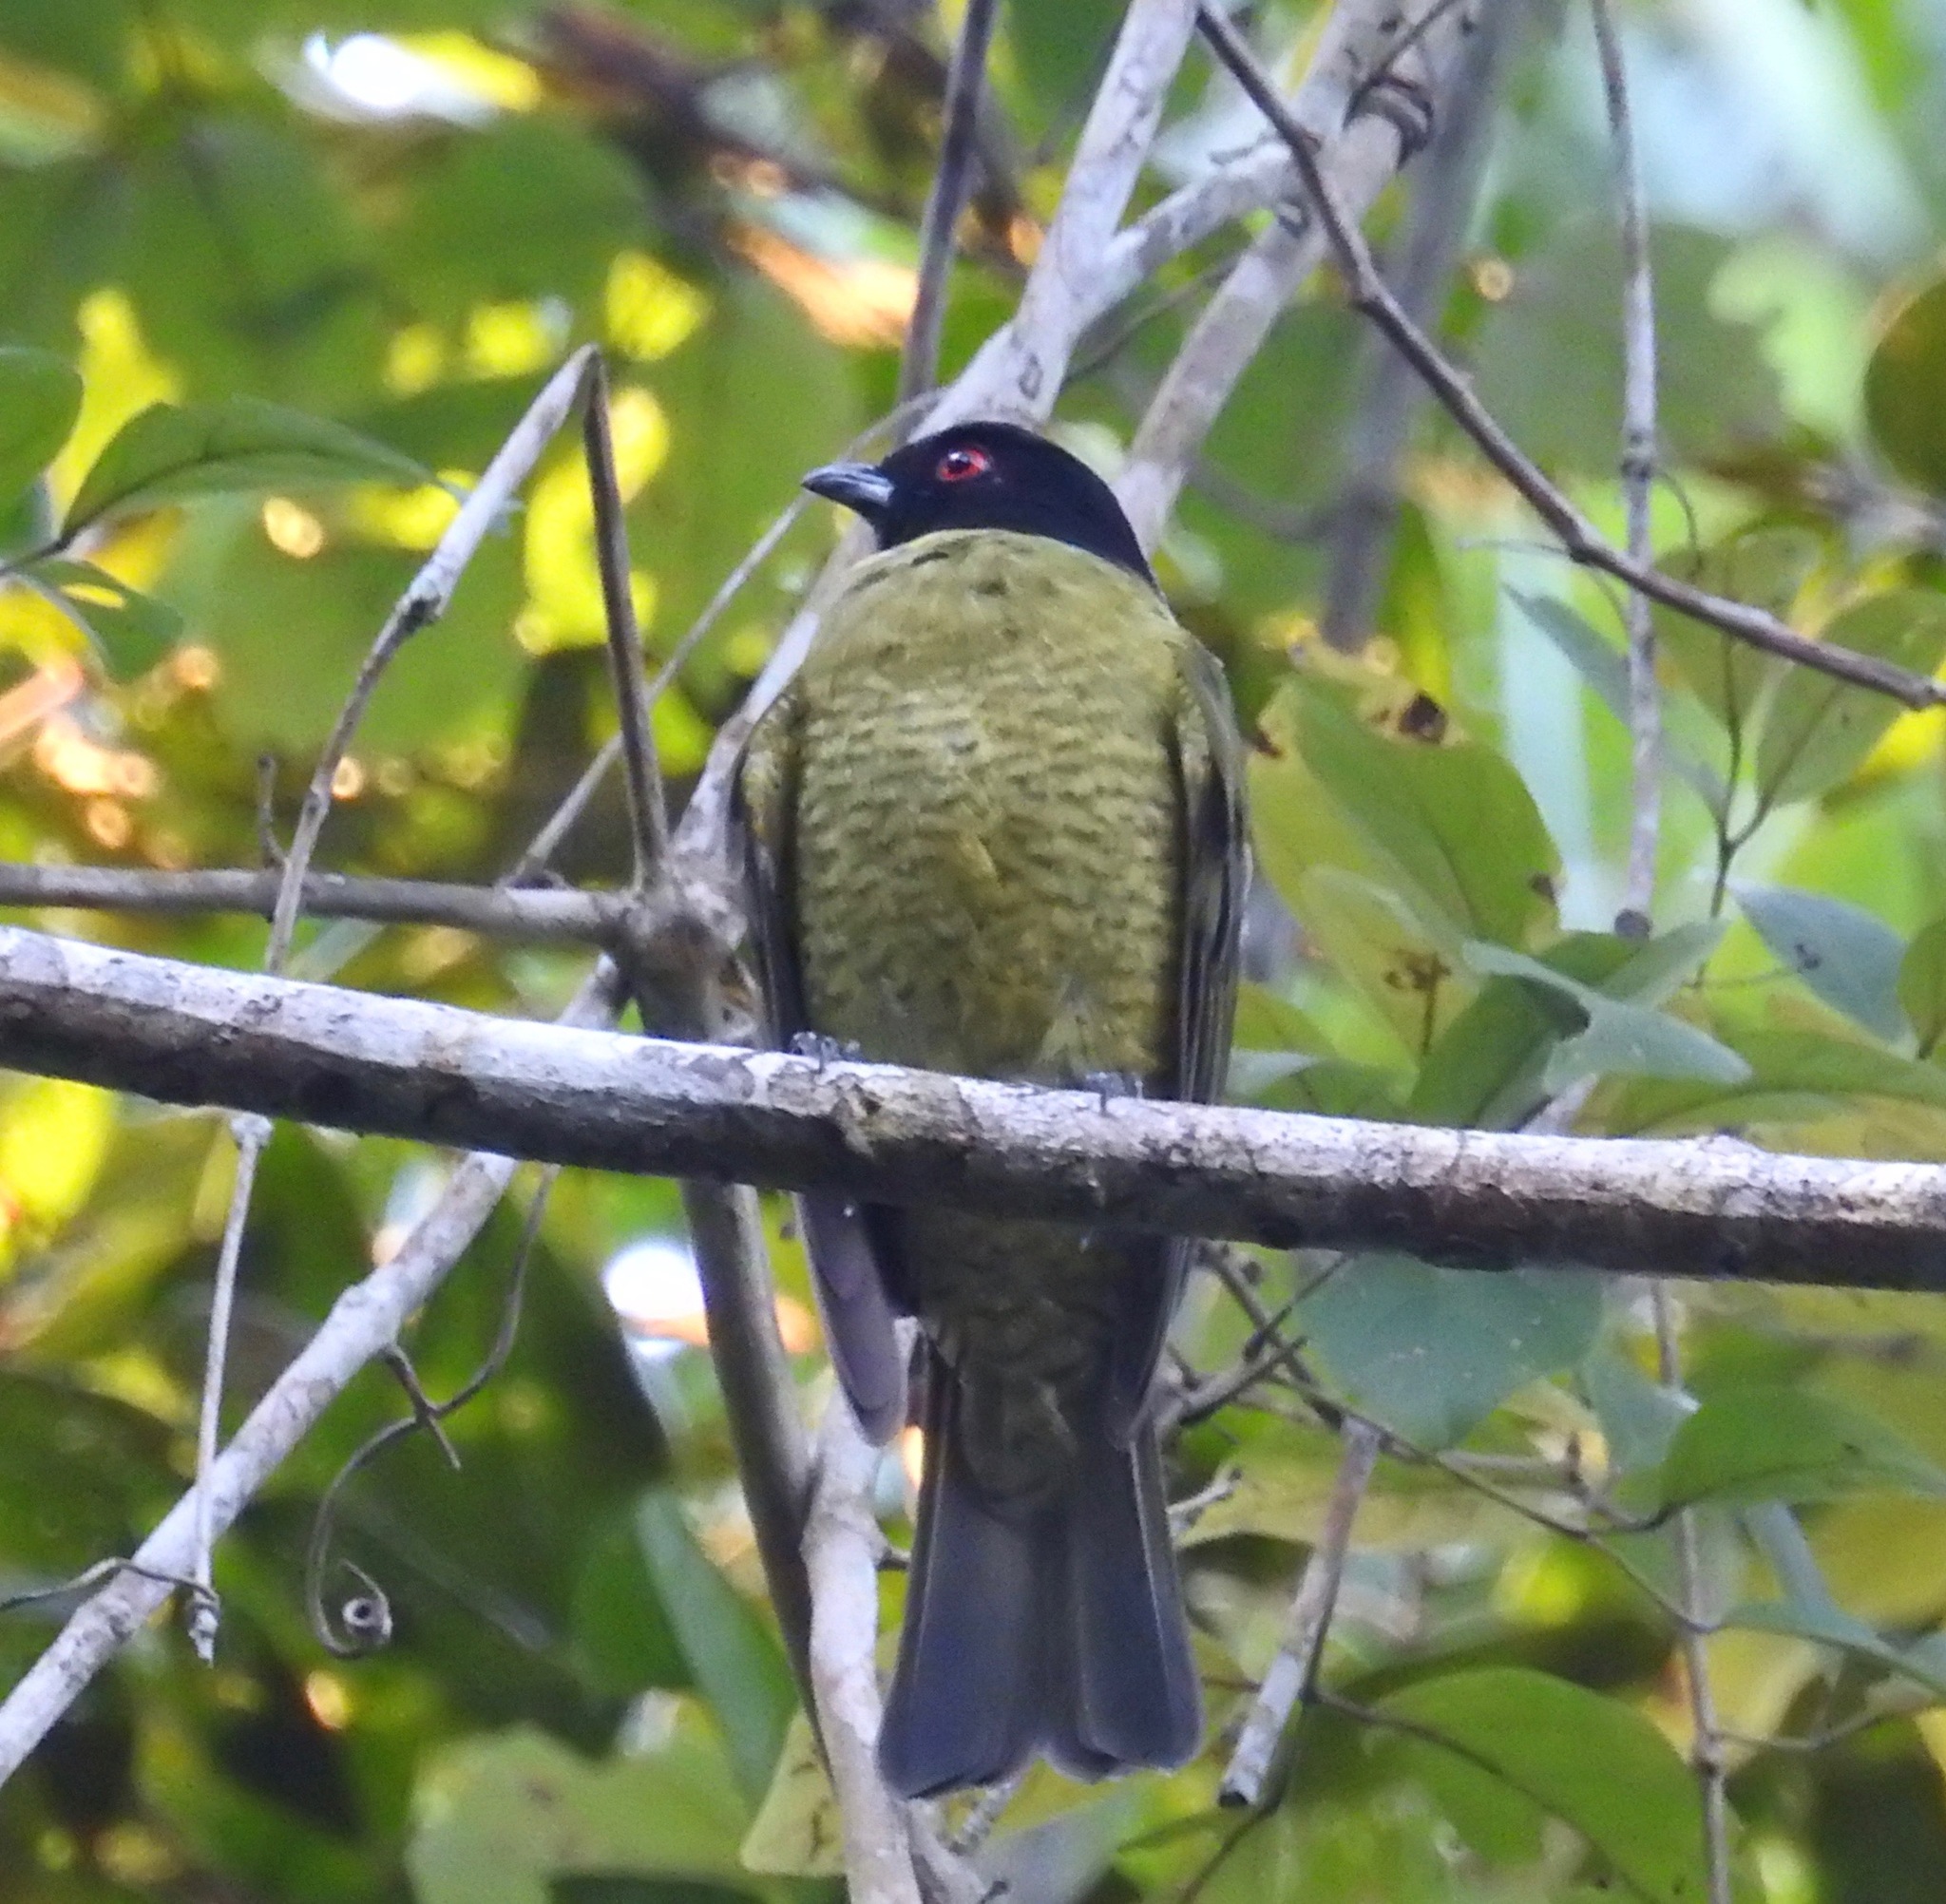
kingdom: Animalia
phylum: Chordata
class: Aves
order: Passeriformes
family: Cotingidae
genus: Carpornis
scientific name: Carpornis melanocephala
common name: Black-headed berryeater
